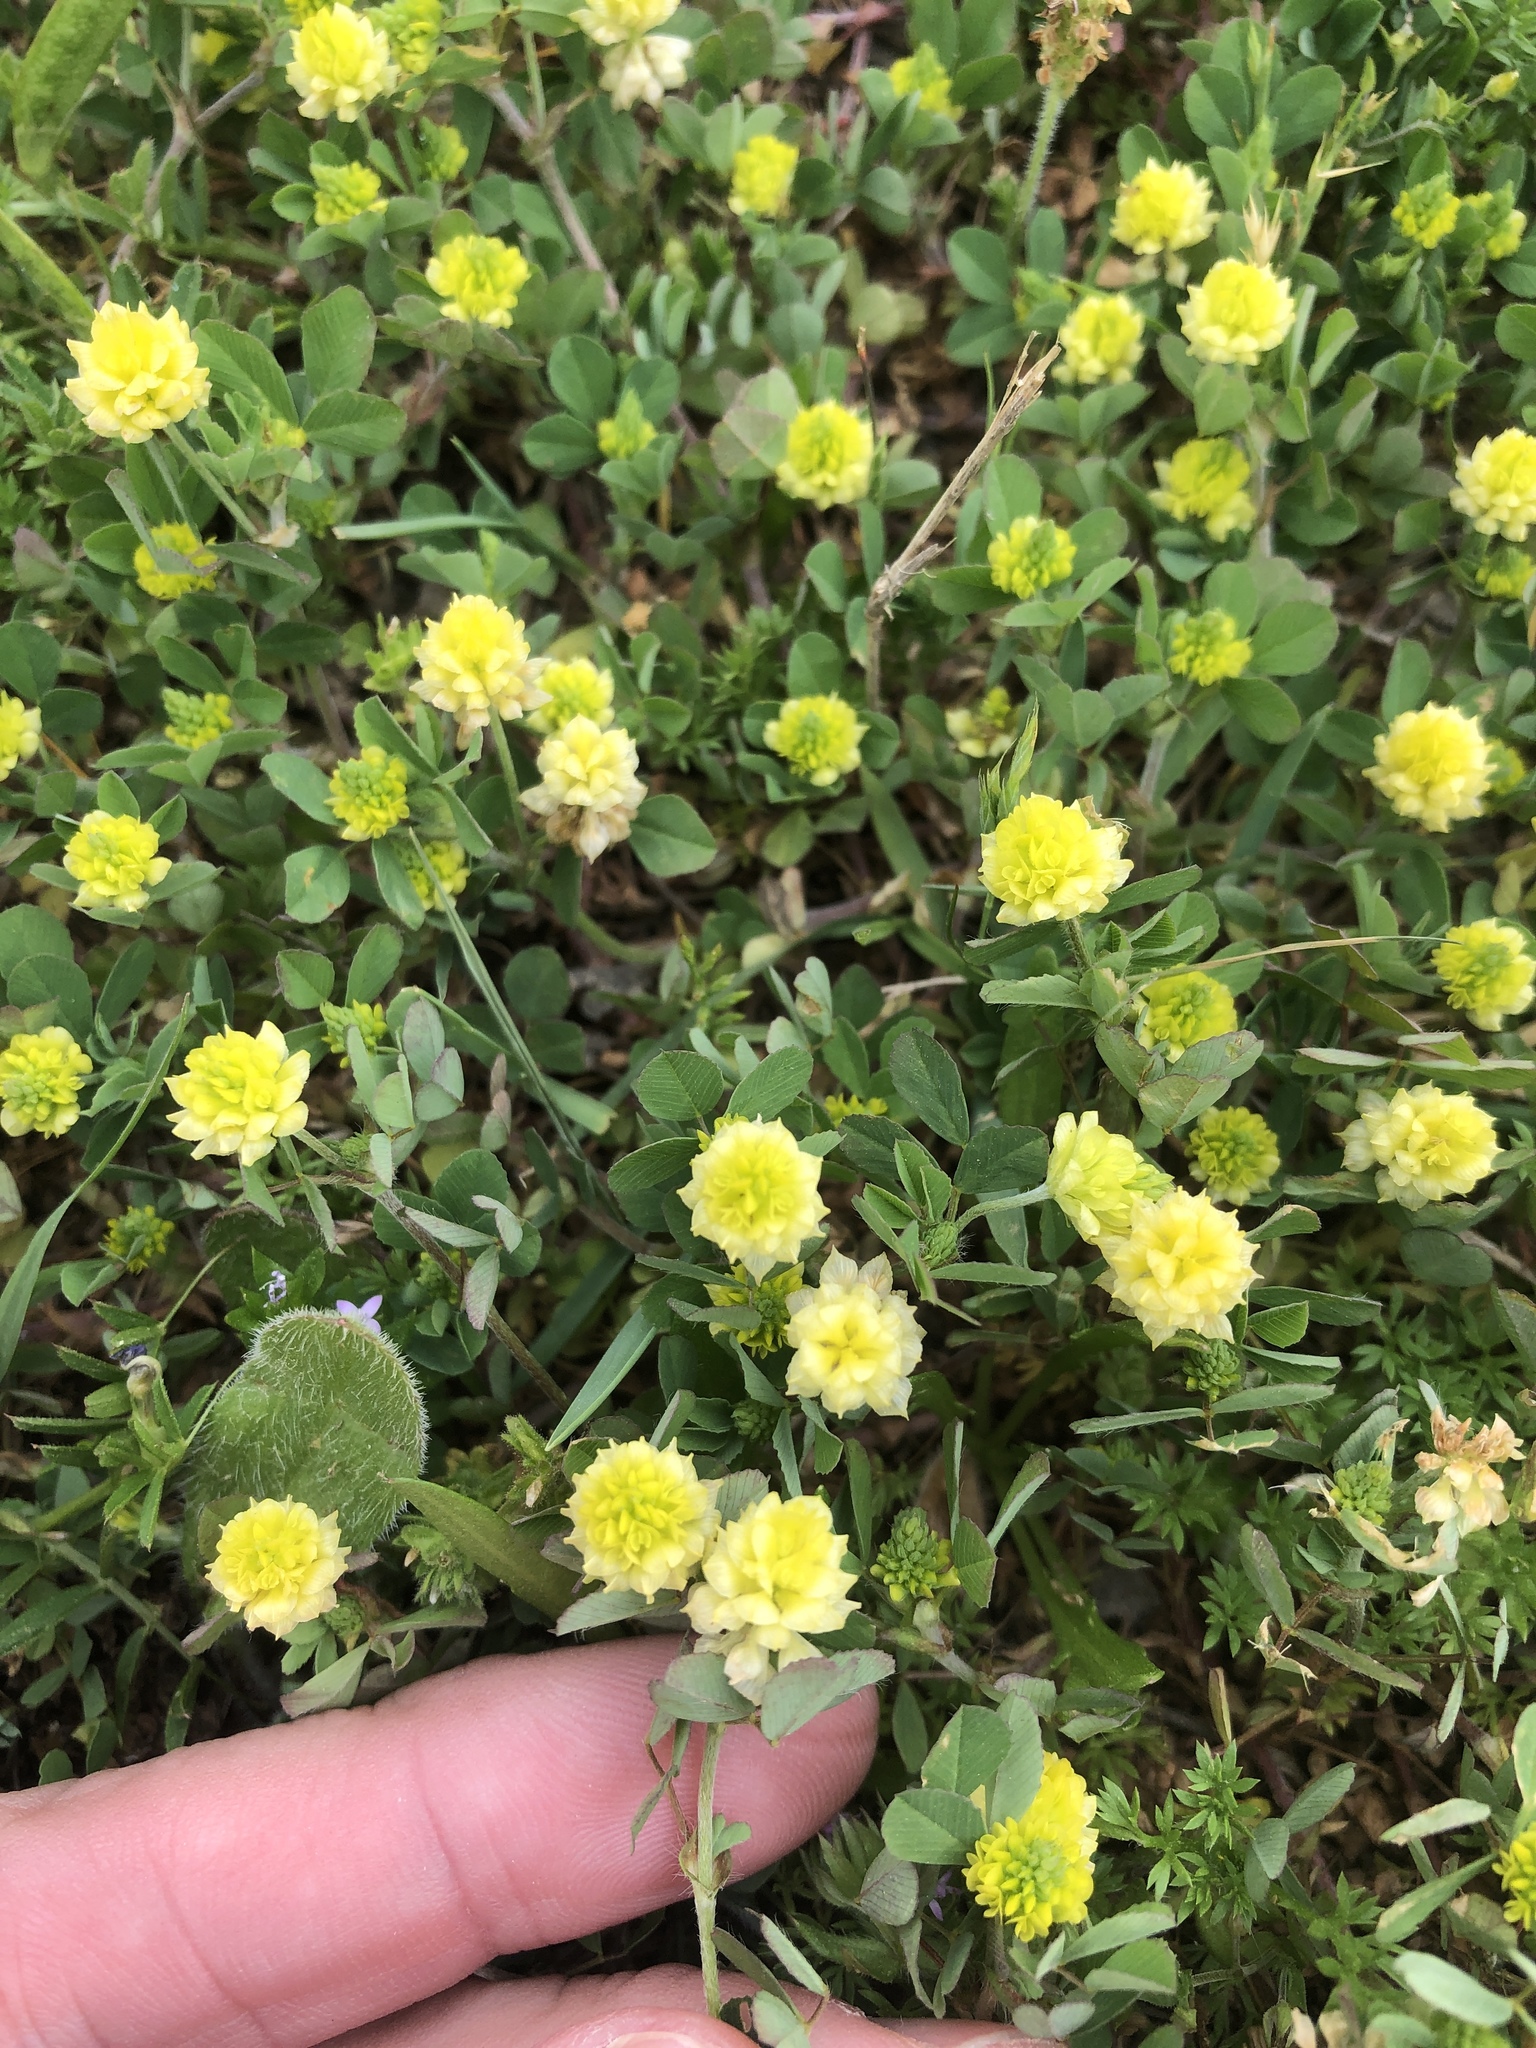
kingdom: Plantae
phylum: Tracheophyta
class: Magnoliopsida
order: Fabales
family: Fabaceae
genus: Trifolium
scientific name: Trifolium campestre
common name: Field clover
